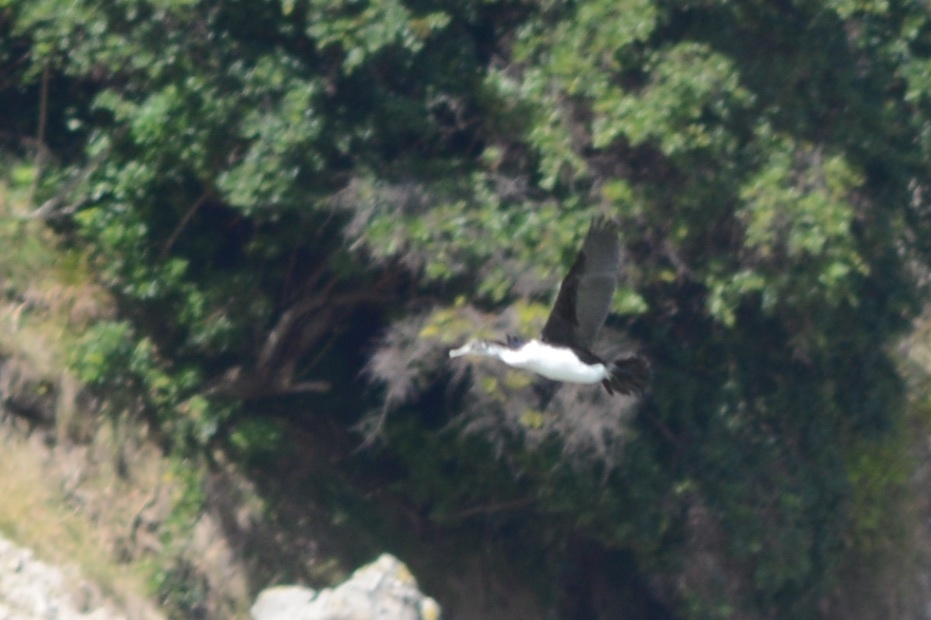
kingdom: Animalia
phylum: Chordata
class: Aves
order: Suliformes
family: Phalacrocoracidae
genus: Phalacrocorax
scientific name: Phalacrocorax varius
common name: Pied cormorant
